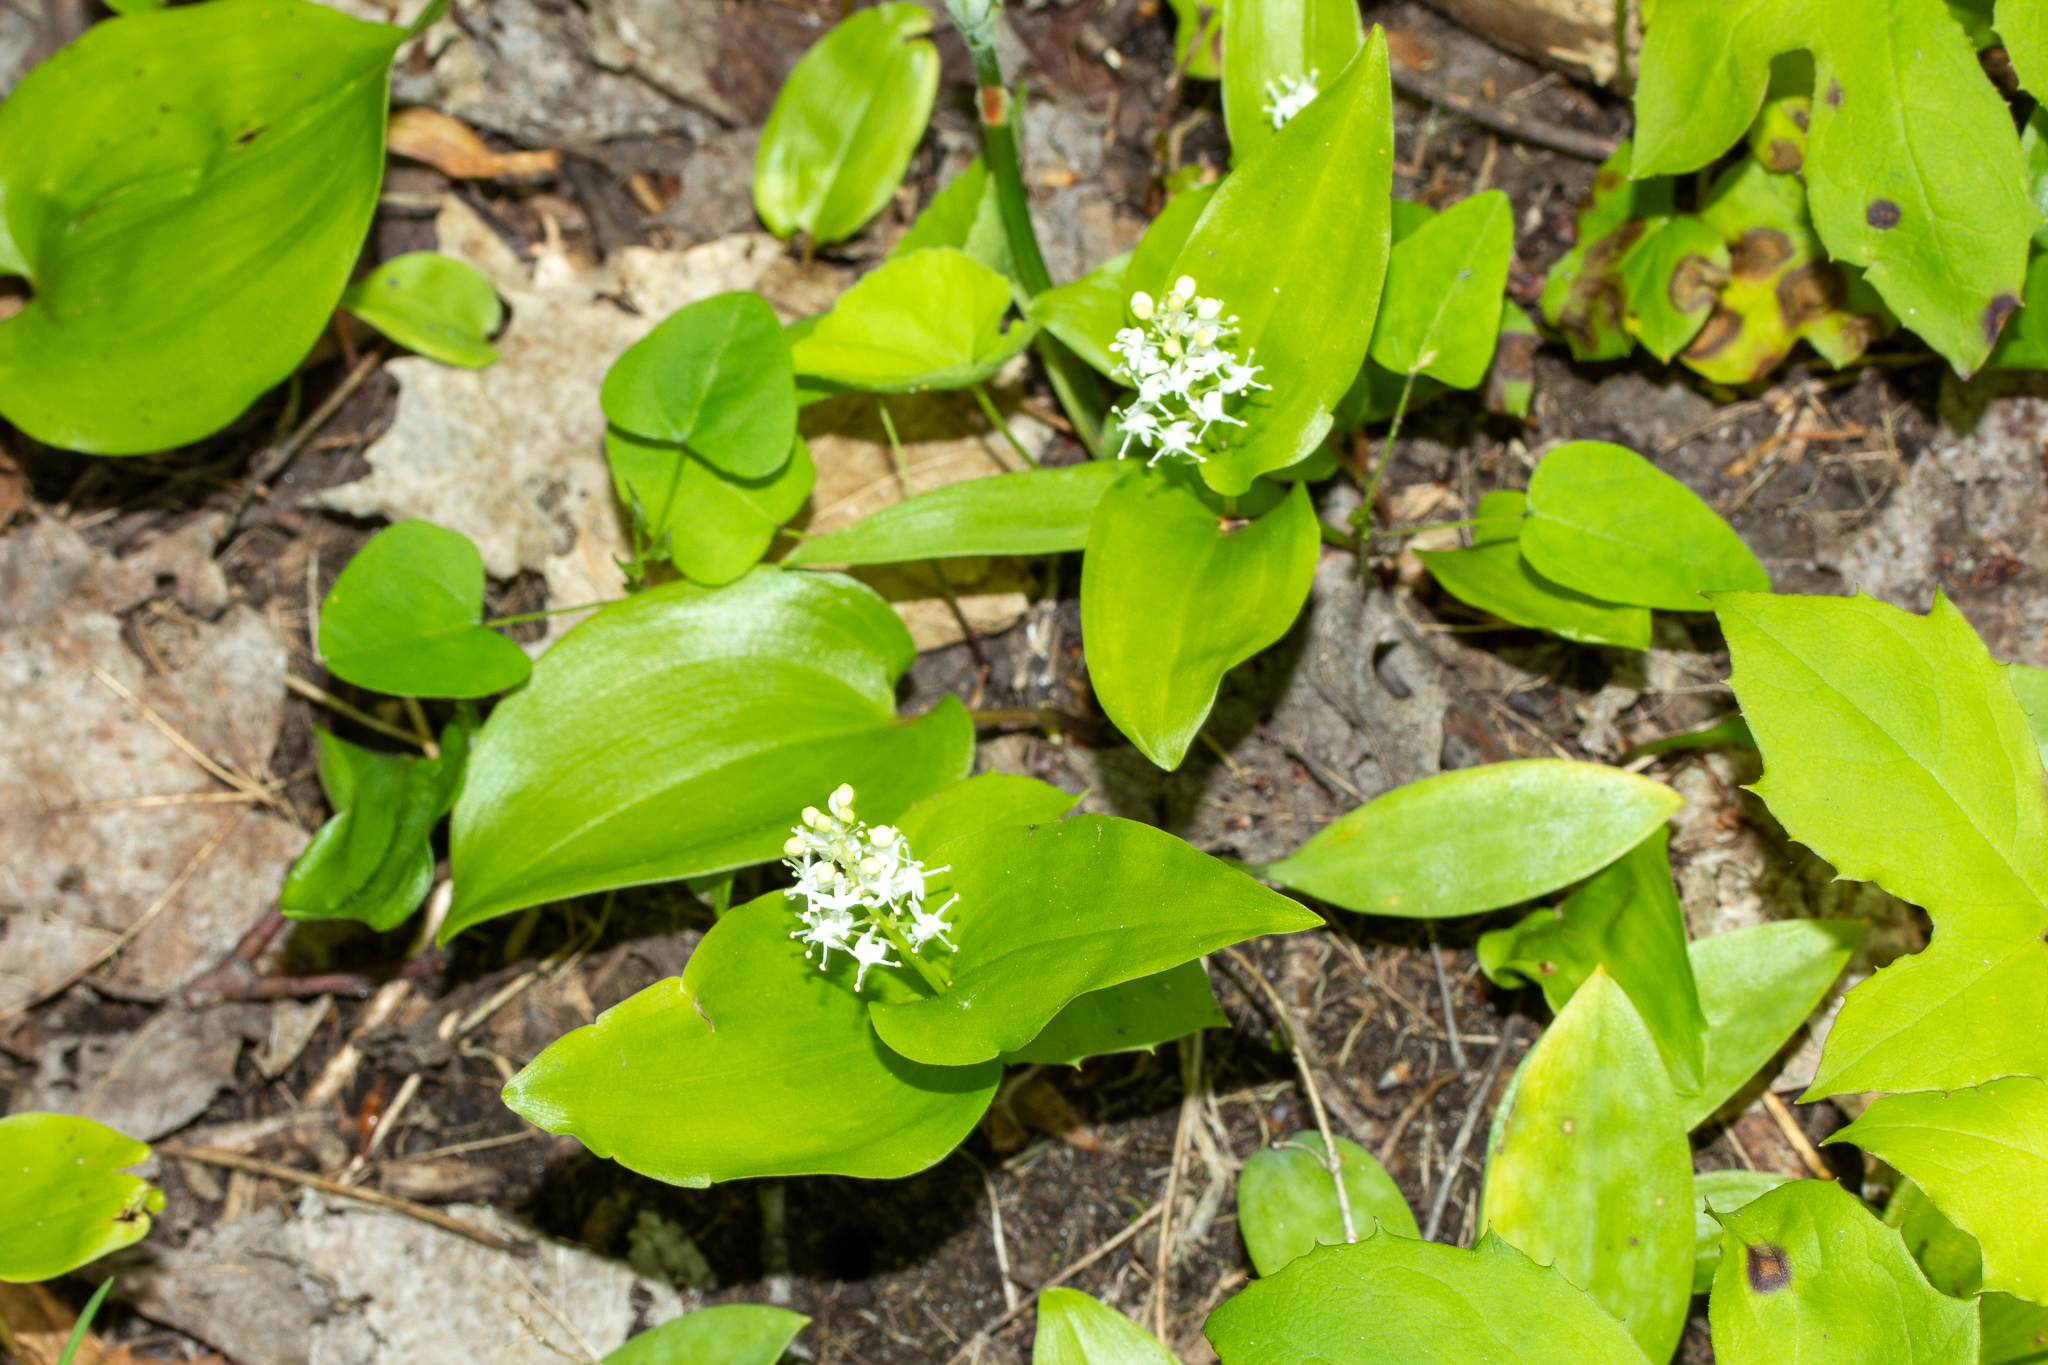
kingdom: Plantae
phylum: Tracheophyta
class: Liliopsida
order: Asparagales
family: Asparagaceae
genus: Maianthemum
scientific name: Maianthemum canadense
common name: False lily-of-the-valley
